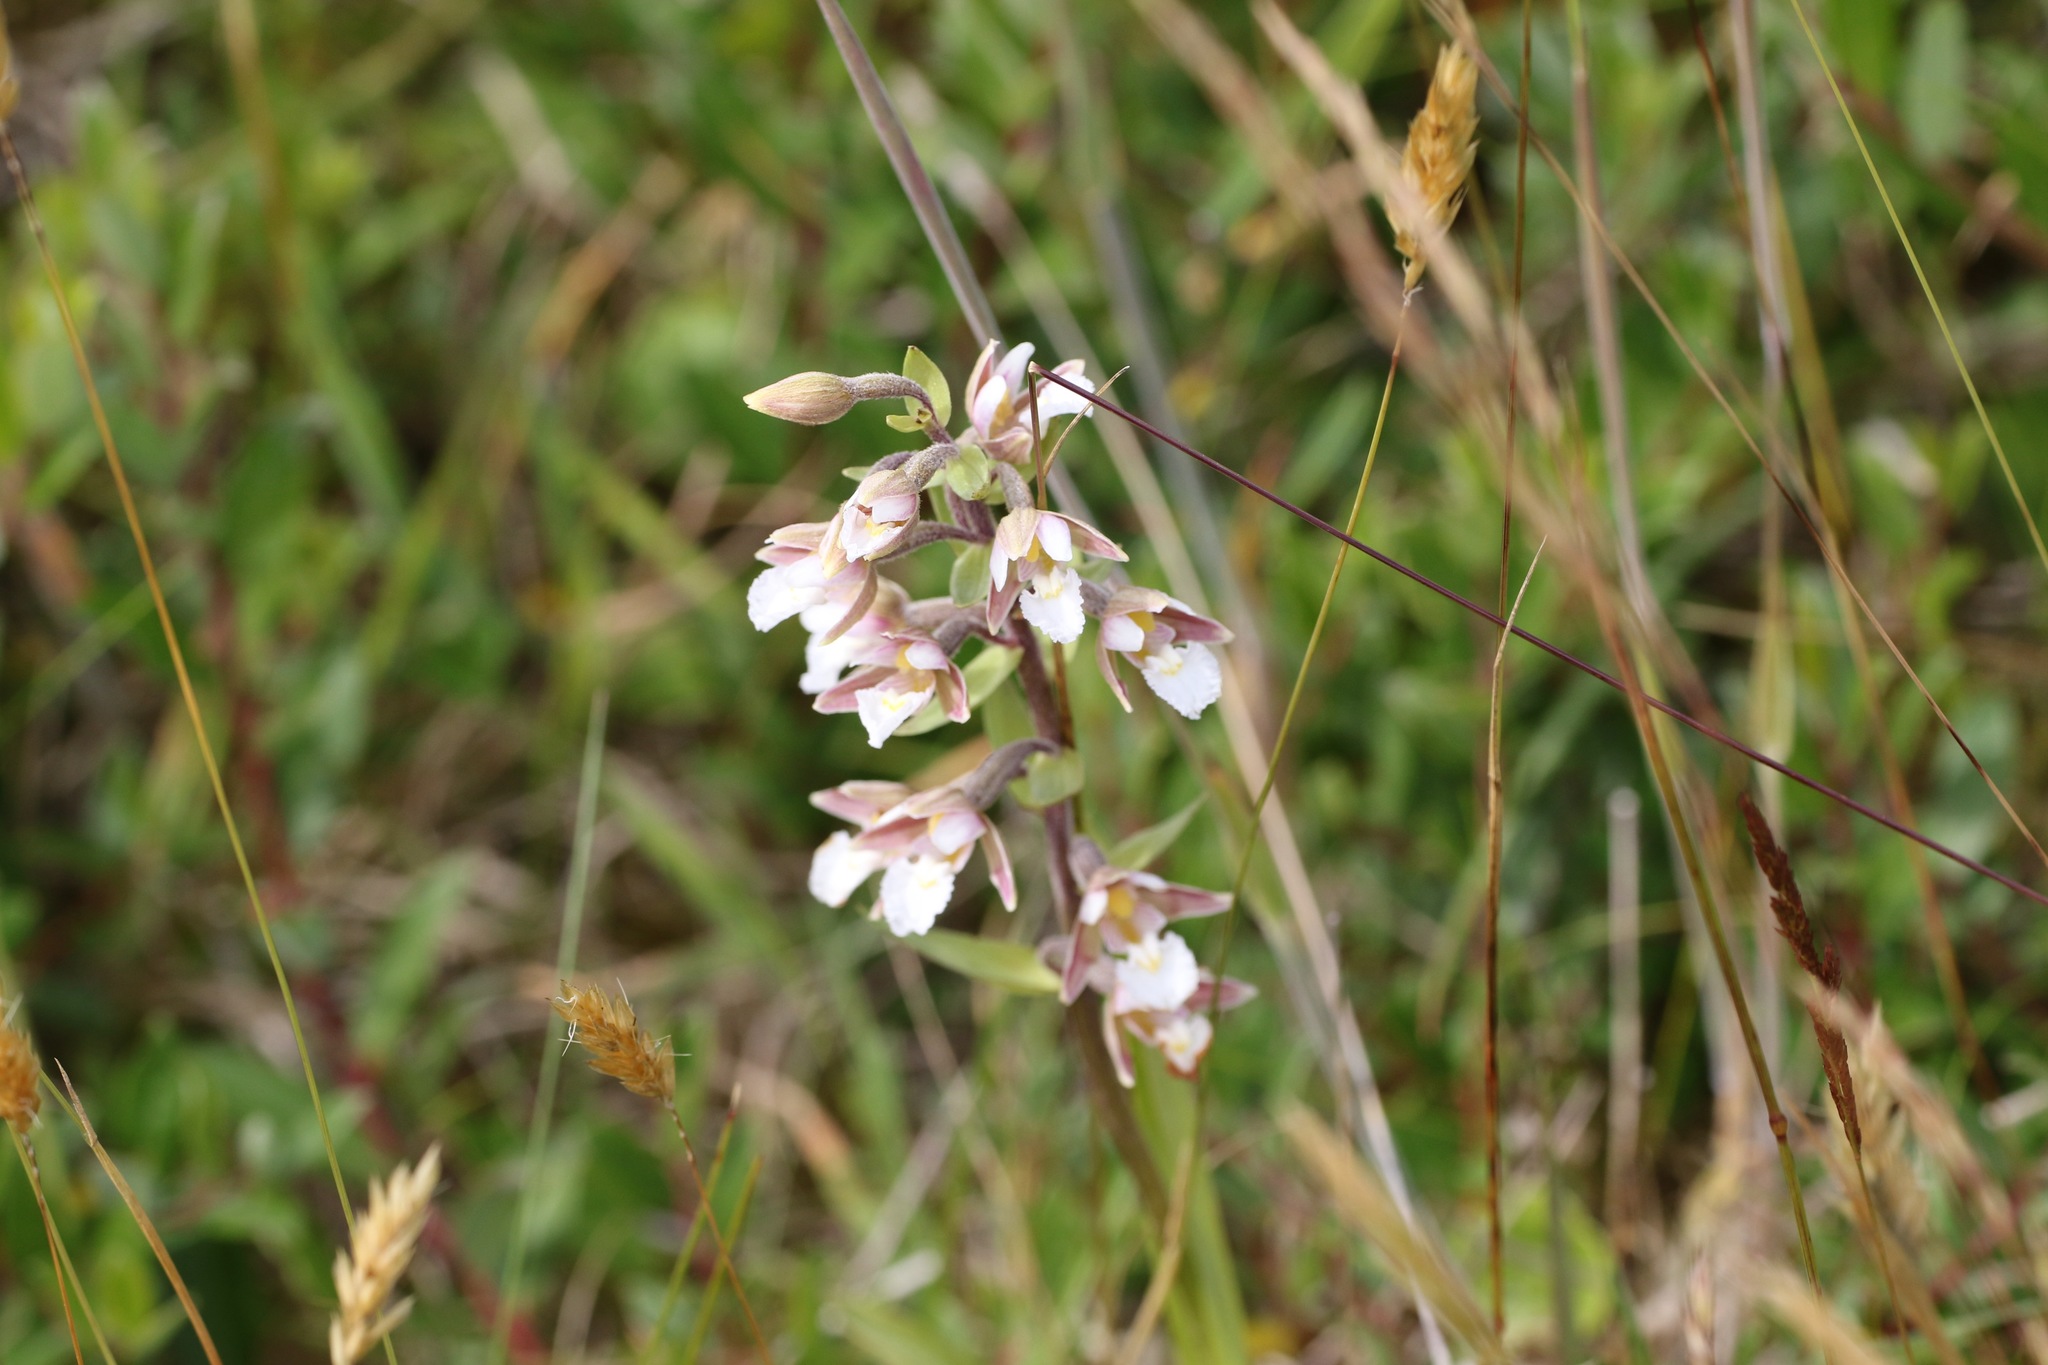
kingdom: Plantae
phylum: Tracheophyta
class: Liliopsida
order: Asparagales
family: Orchidaceae
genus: Epipactis
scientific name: Epipactis palustris
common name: Marsh helleborine
